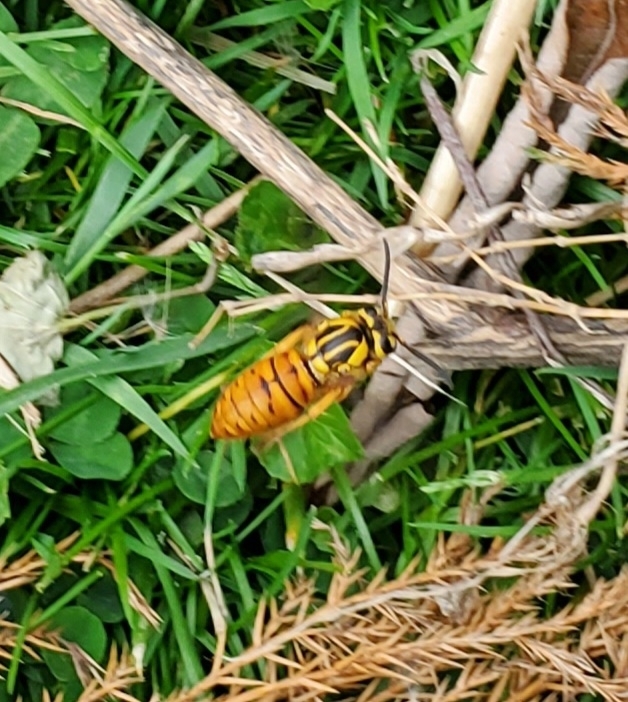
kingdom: Animalia
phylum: Arthropoda
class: Insecta
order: Hymenoptera
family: Vespidae
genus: Vespula
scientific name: Vespula squamosa
